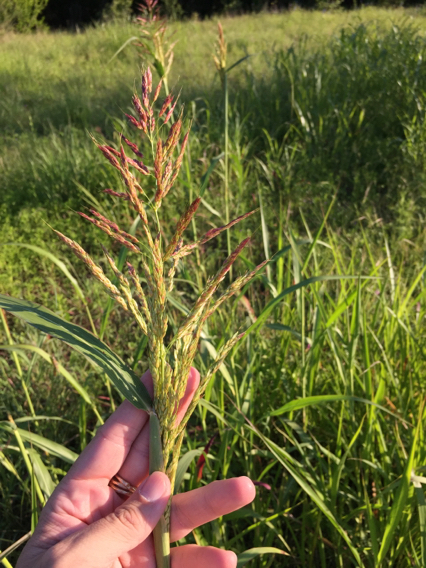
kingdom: Plantae
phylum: Tracheophyta
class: Liliopsida
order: Poales
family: Poaceae
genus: Sorghum
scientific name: Sorghum halepense
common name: Johnson-grass
